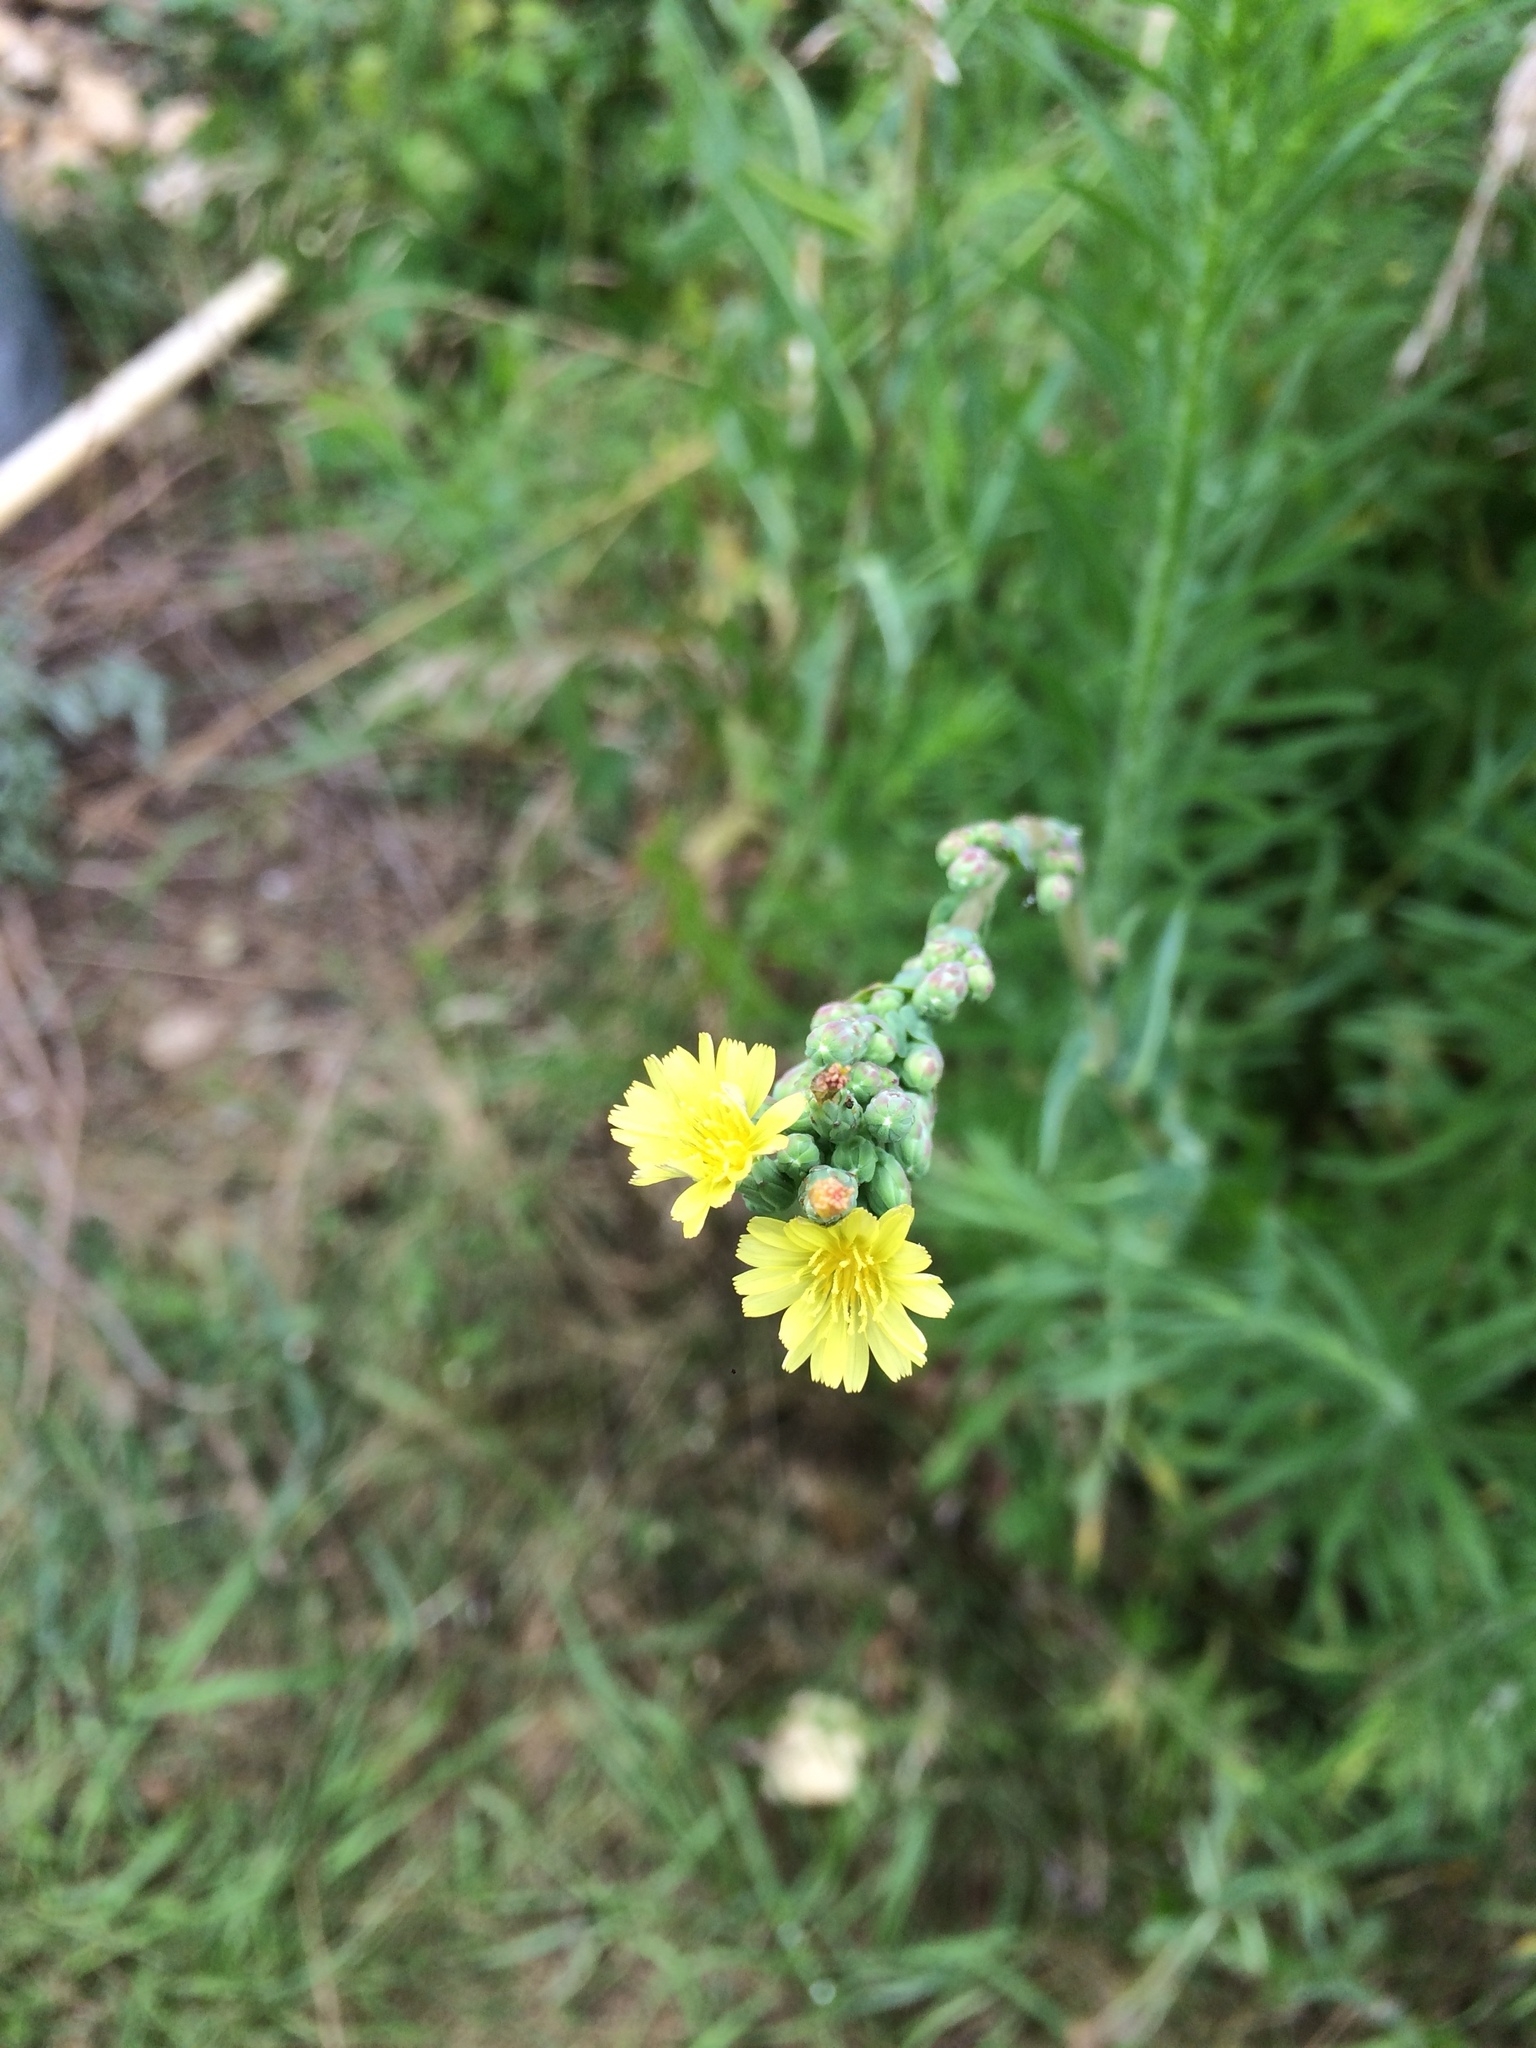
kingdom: Plantae
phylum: Tracheophyta
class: Magnoliopsida
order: Asterales
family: Asteraceae
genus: Lactuca
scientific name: Lactuca serriola
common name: Prickly lettuce
